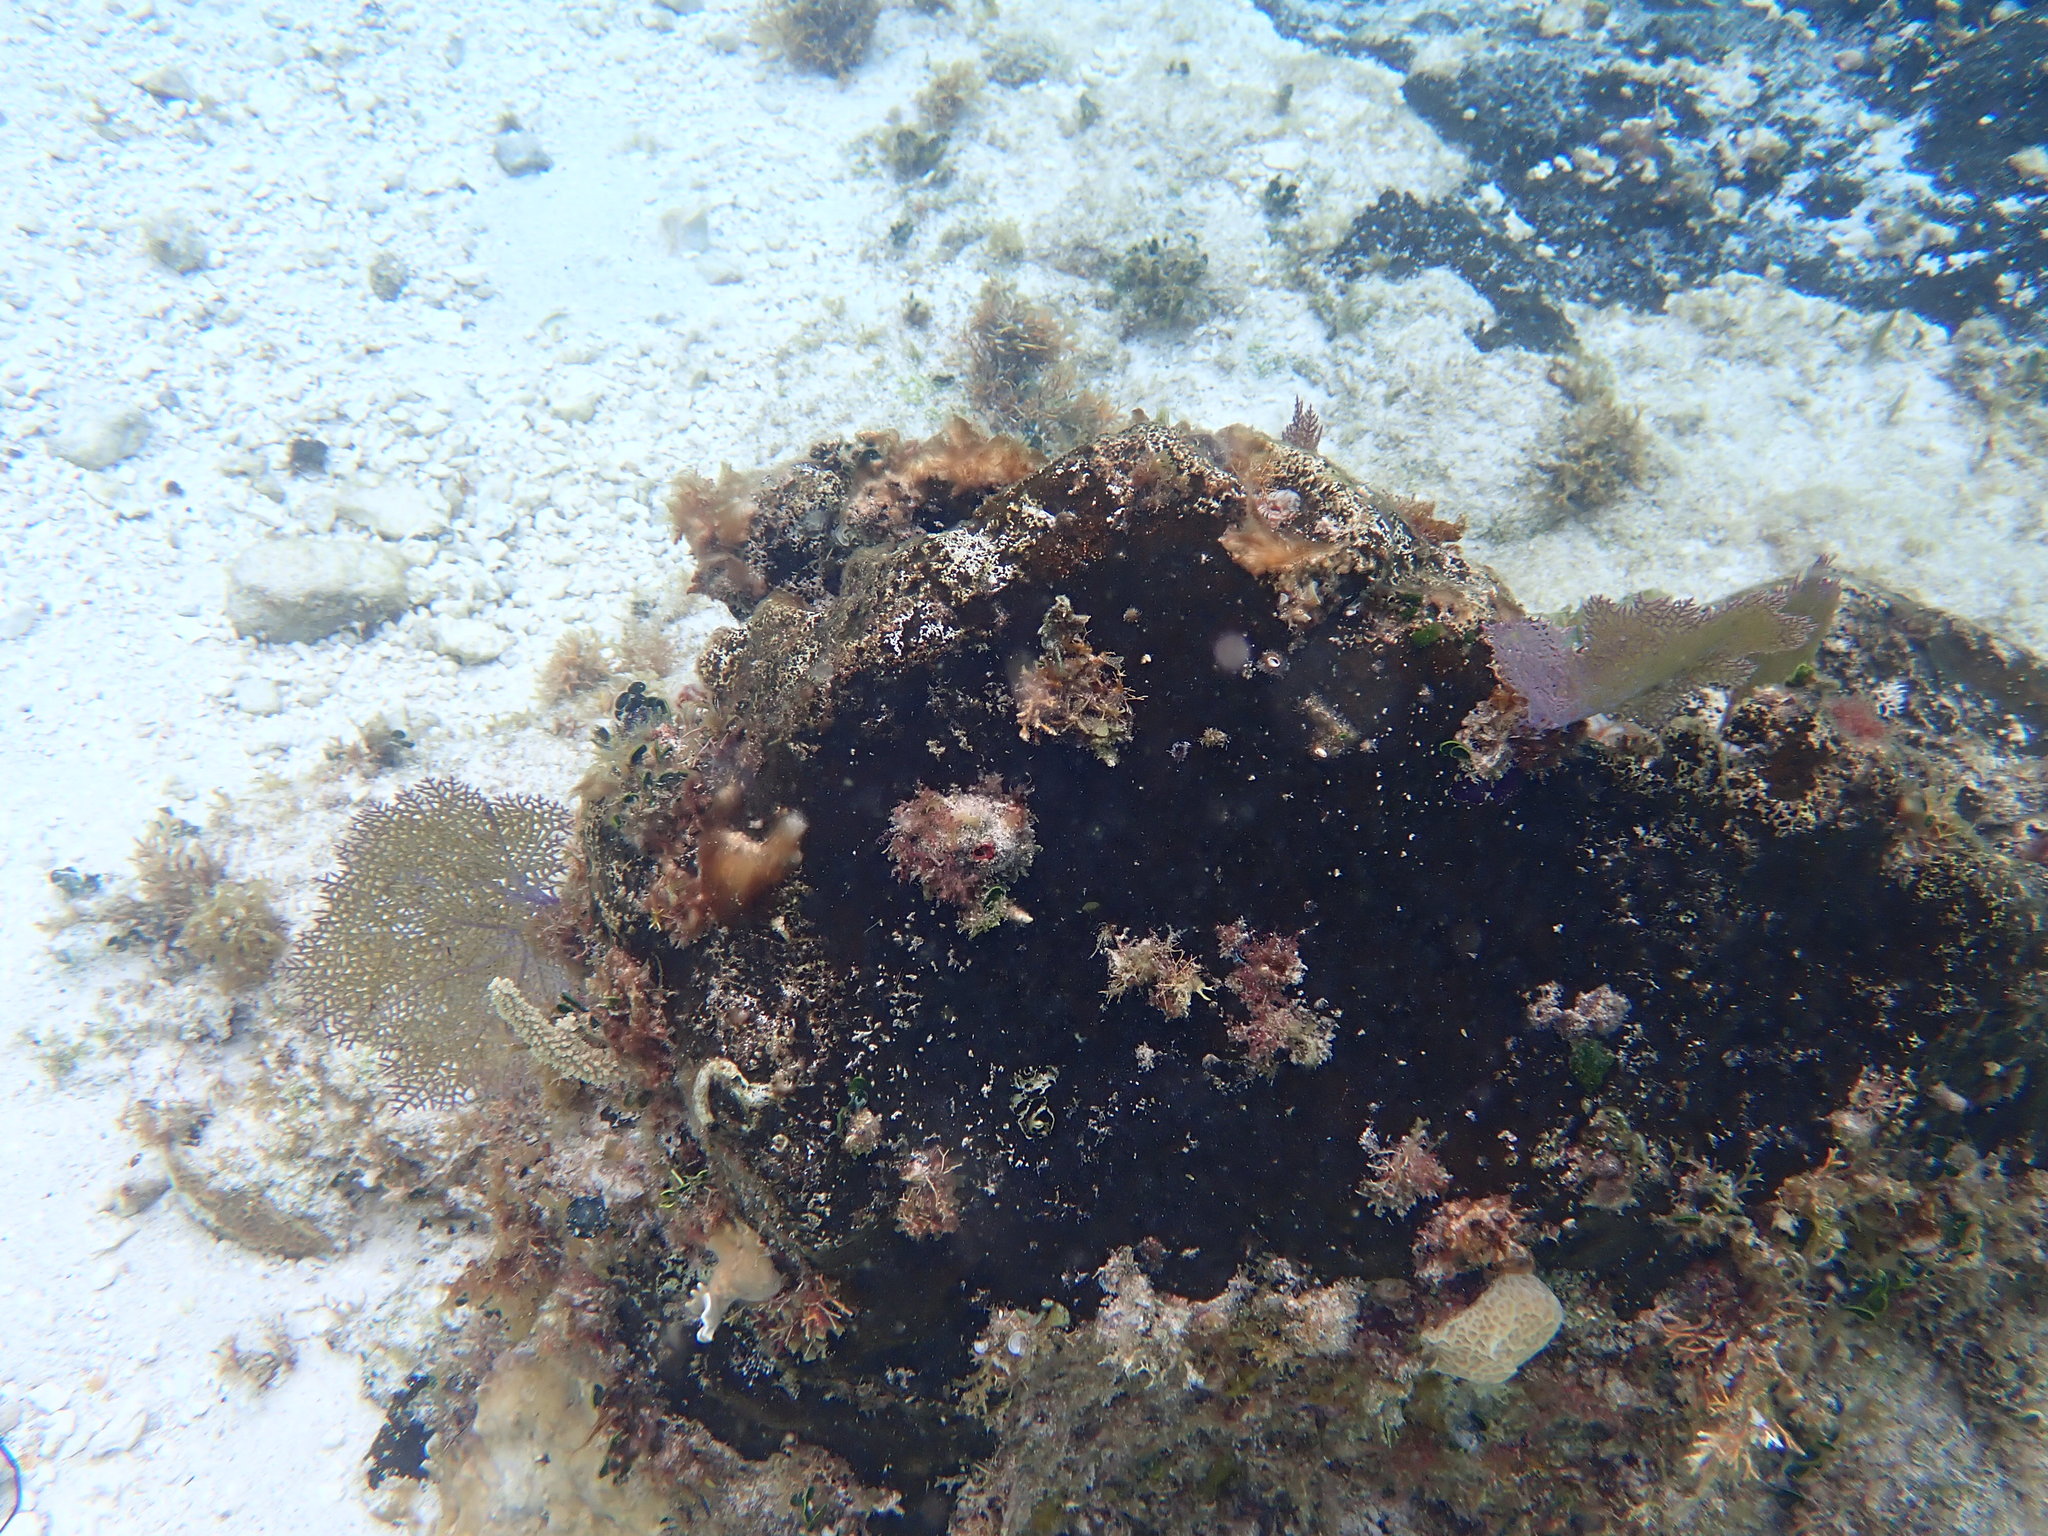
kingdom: Animalia
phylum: Cnidaria
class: Anthozoa
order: Malacalcyonacea
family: Gorgoniidae
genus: Gorgonia
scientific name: Gorgonia ventalina
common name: Common sea fan
